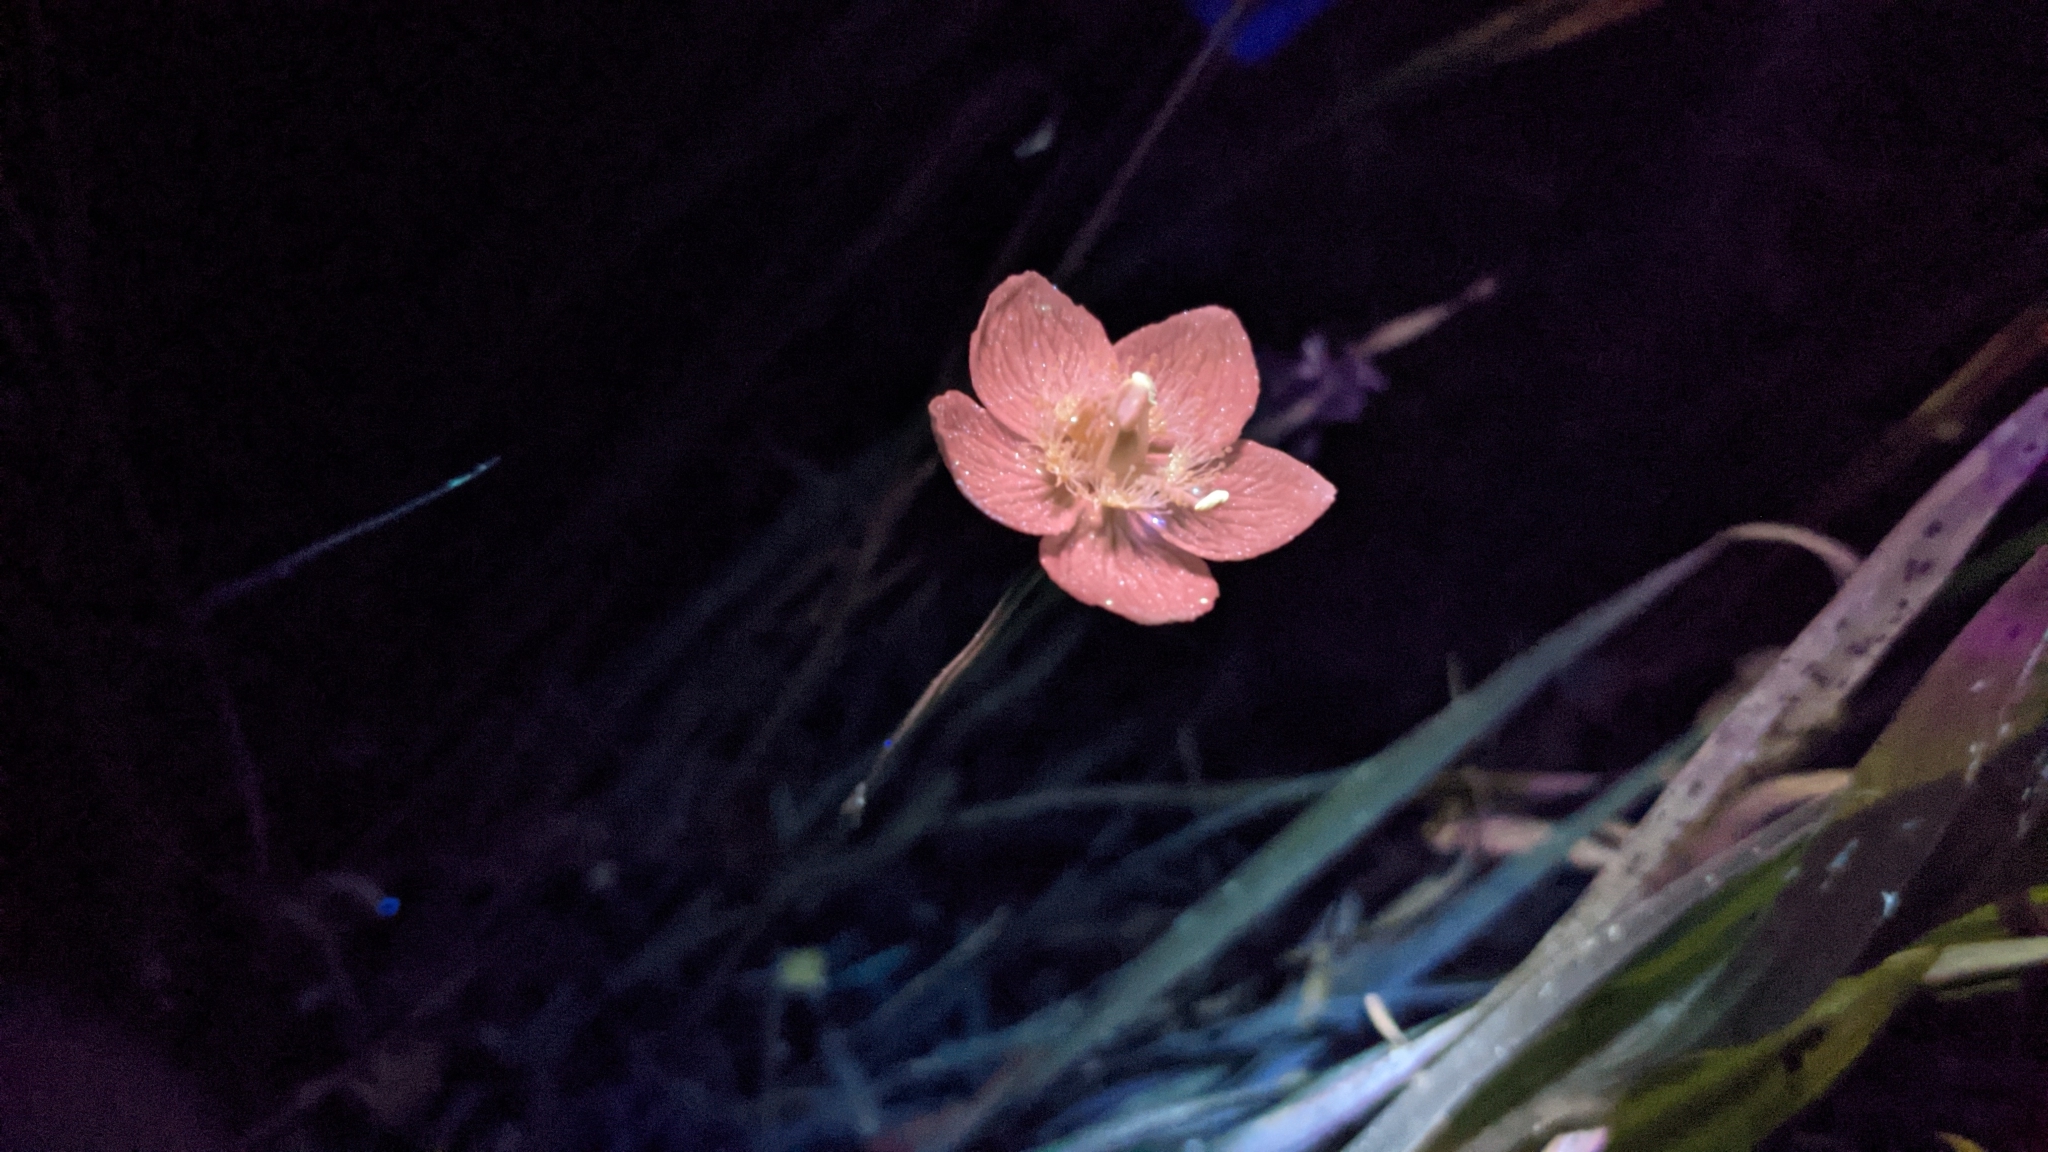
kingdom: Plantae
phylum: Tracheophyta
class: Magnoliopsida
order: Celastrales
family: Parnassiaceae
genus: Parnassia
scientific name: Parnassia palustris
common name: Grass-of-parnassus
